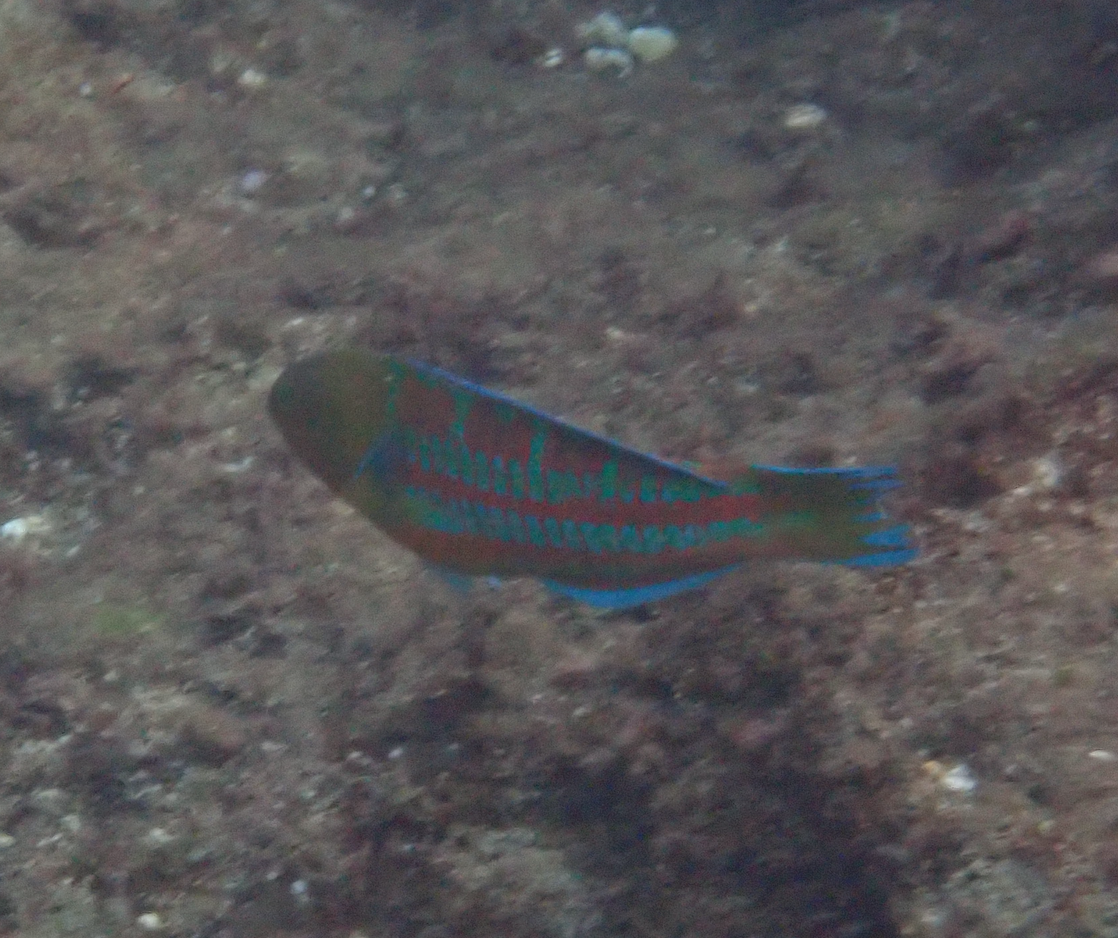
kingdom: Animalia
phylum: Chordata
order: Perciformes
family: Labridae
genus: Thalassoma
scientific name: Thalassoma trilobatum
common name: Christmas wrasse
